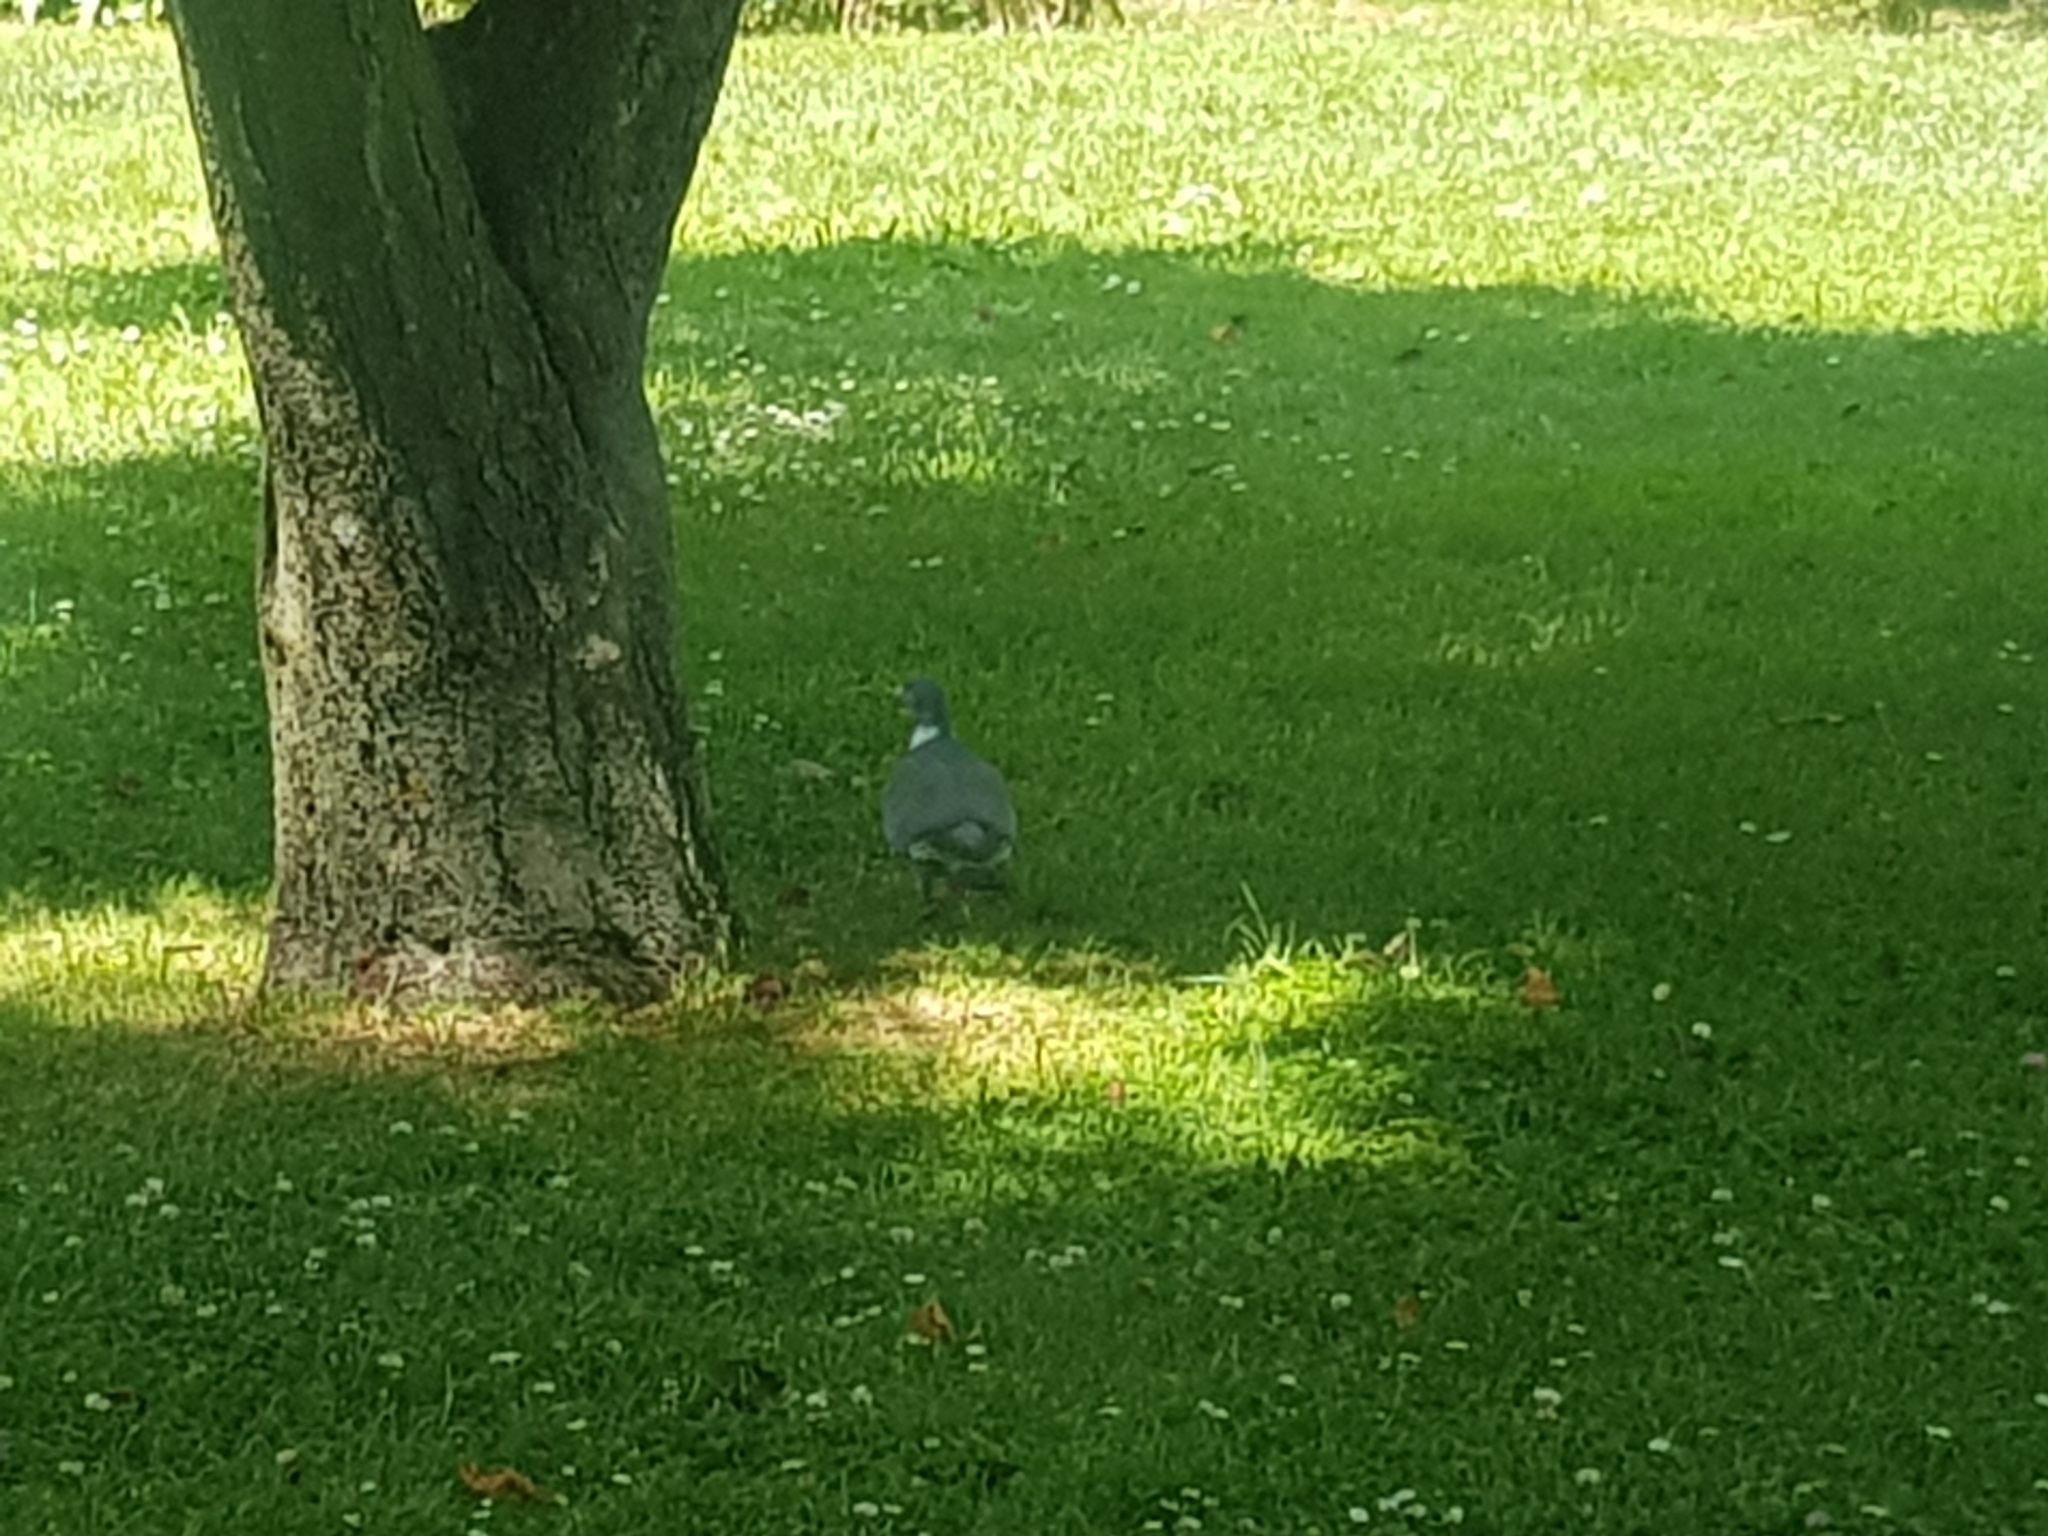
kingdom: Animalia
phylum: Chordata
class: Aves
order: Columbiformes
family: Columbidae
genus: Columba
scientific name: Columba palumbus
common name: Common wood pigeon
